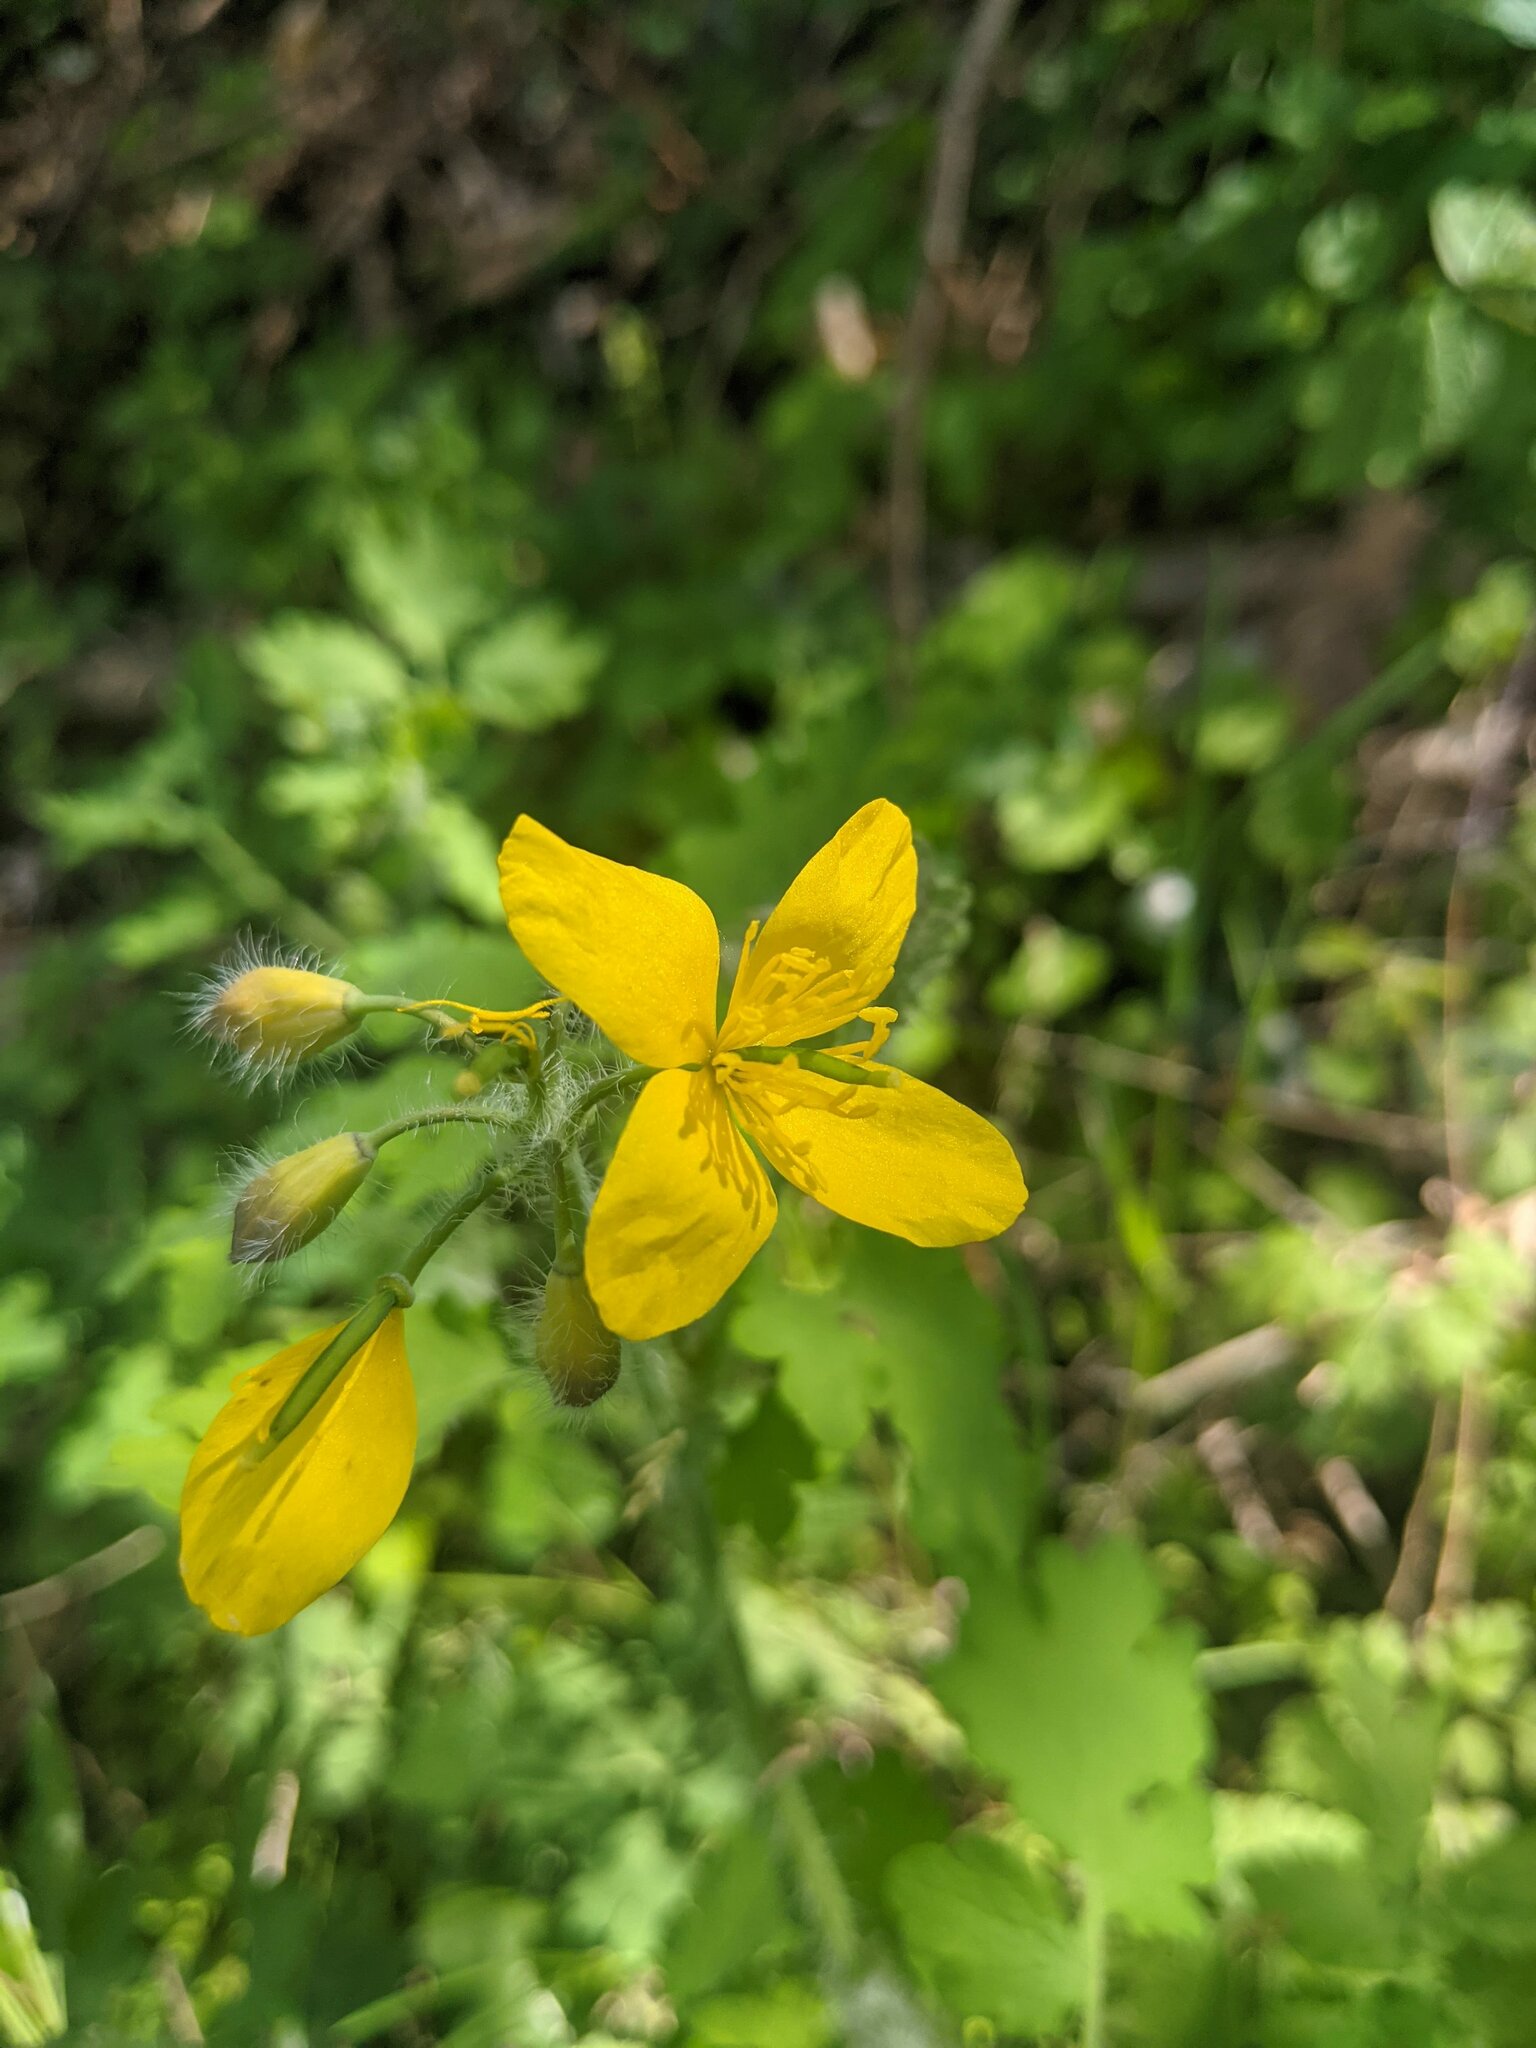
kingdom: Plantae
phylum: Tracheophyta
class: Magnoliopsida
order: Ranunculales
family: Papaveraceae
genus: Chelidonium
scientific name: Chelidonium majus
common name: Greater celandine
